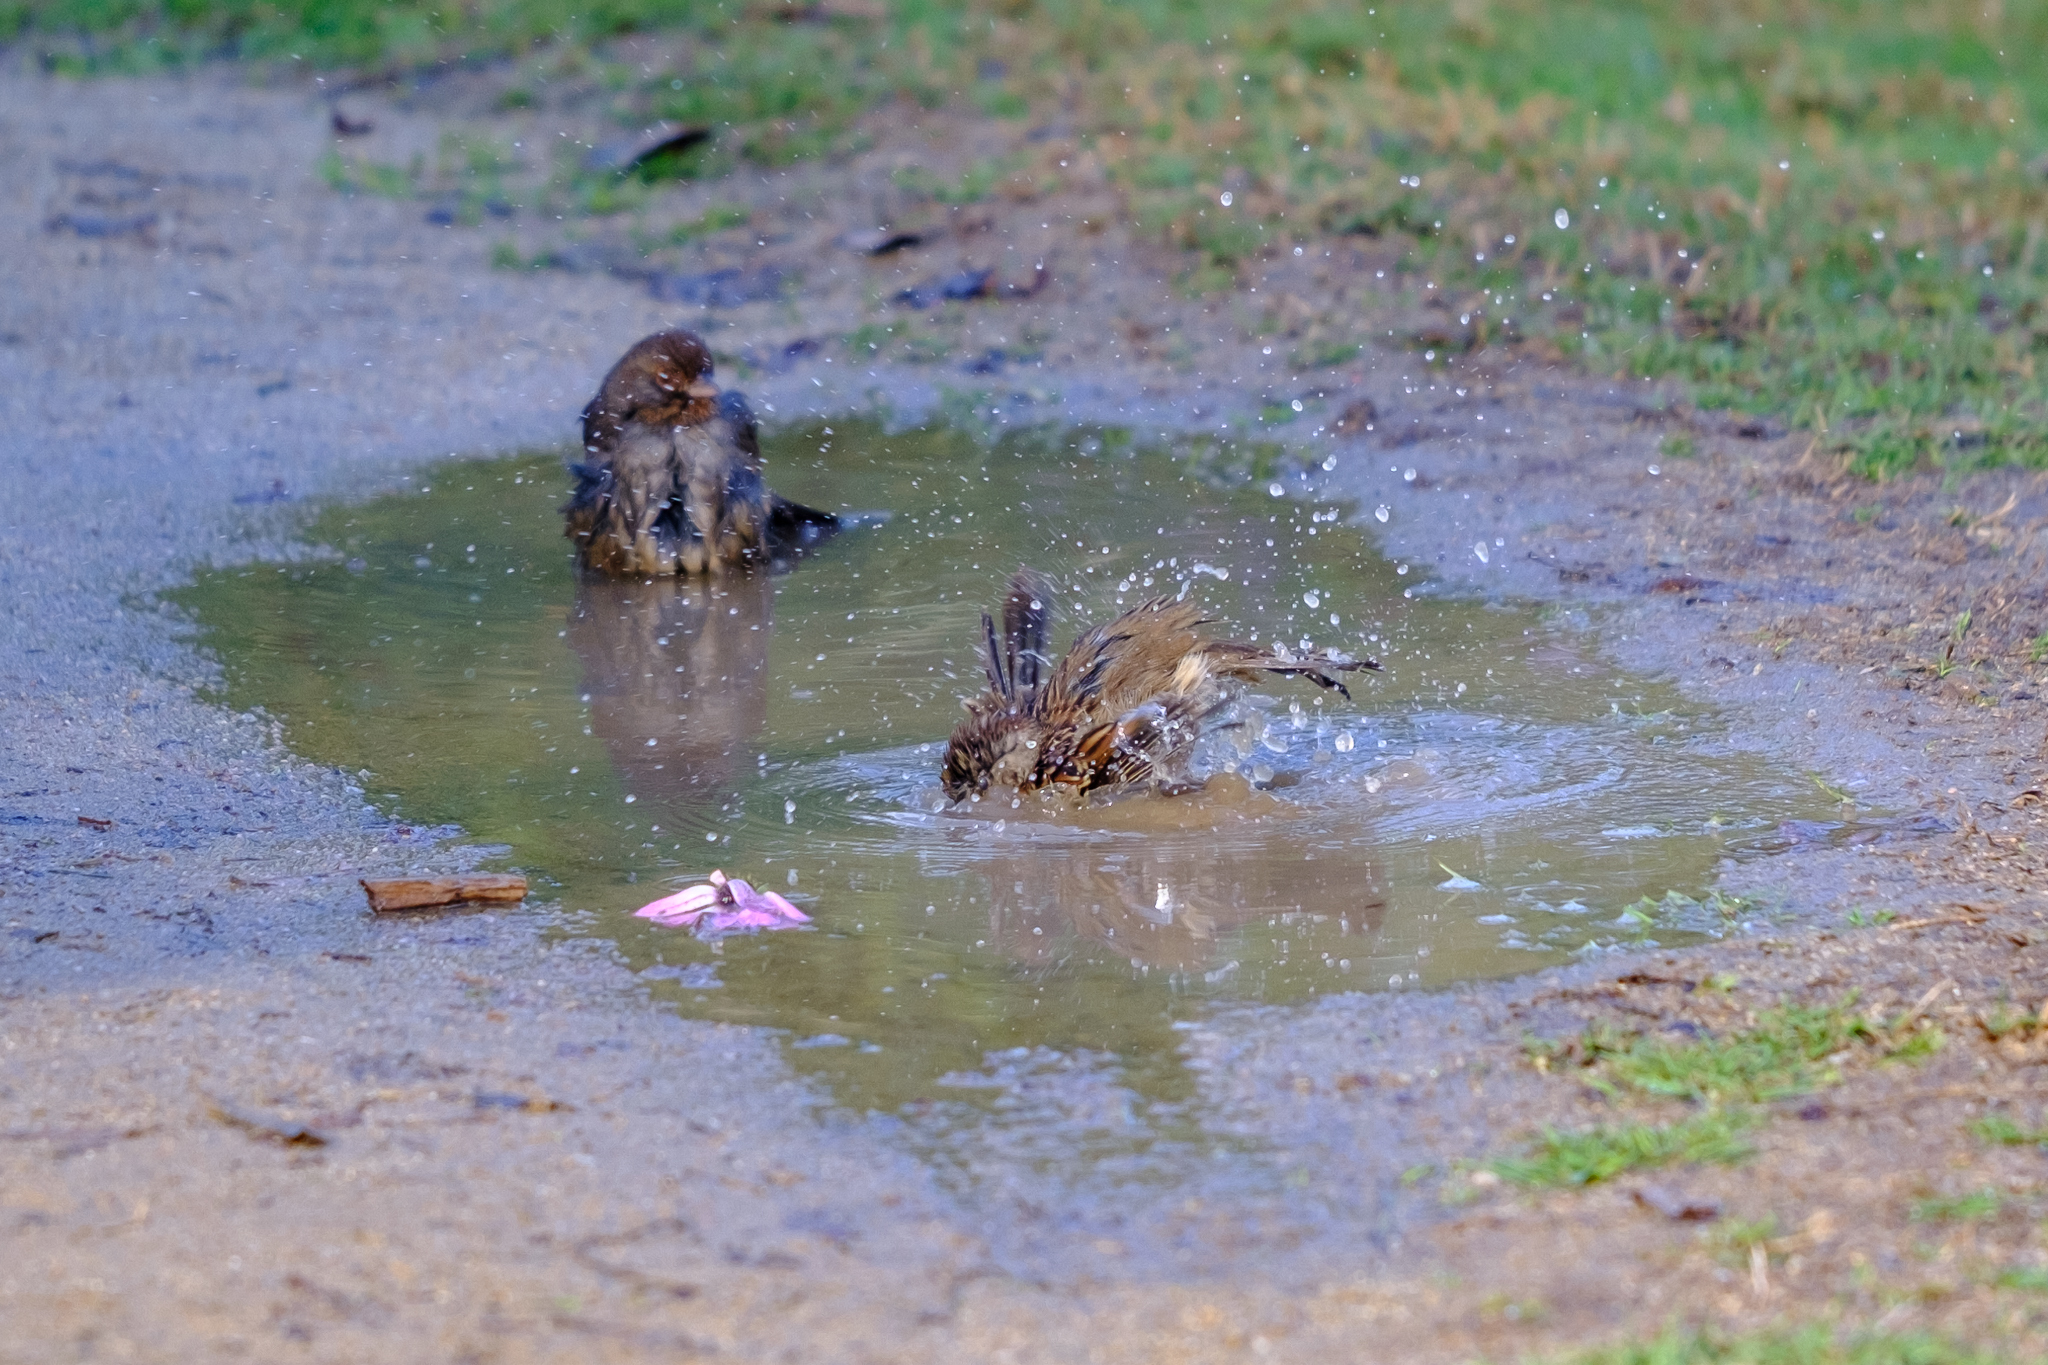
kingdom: Animalia
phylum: Chordata
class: Aves
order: Passeriformes
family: Passerellidae
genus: Zonotrichia
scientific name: Zonotrichia atricapilla
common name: Golden-crowned sparrow
